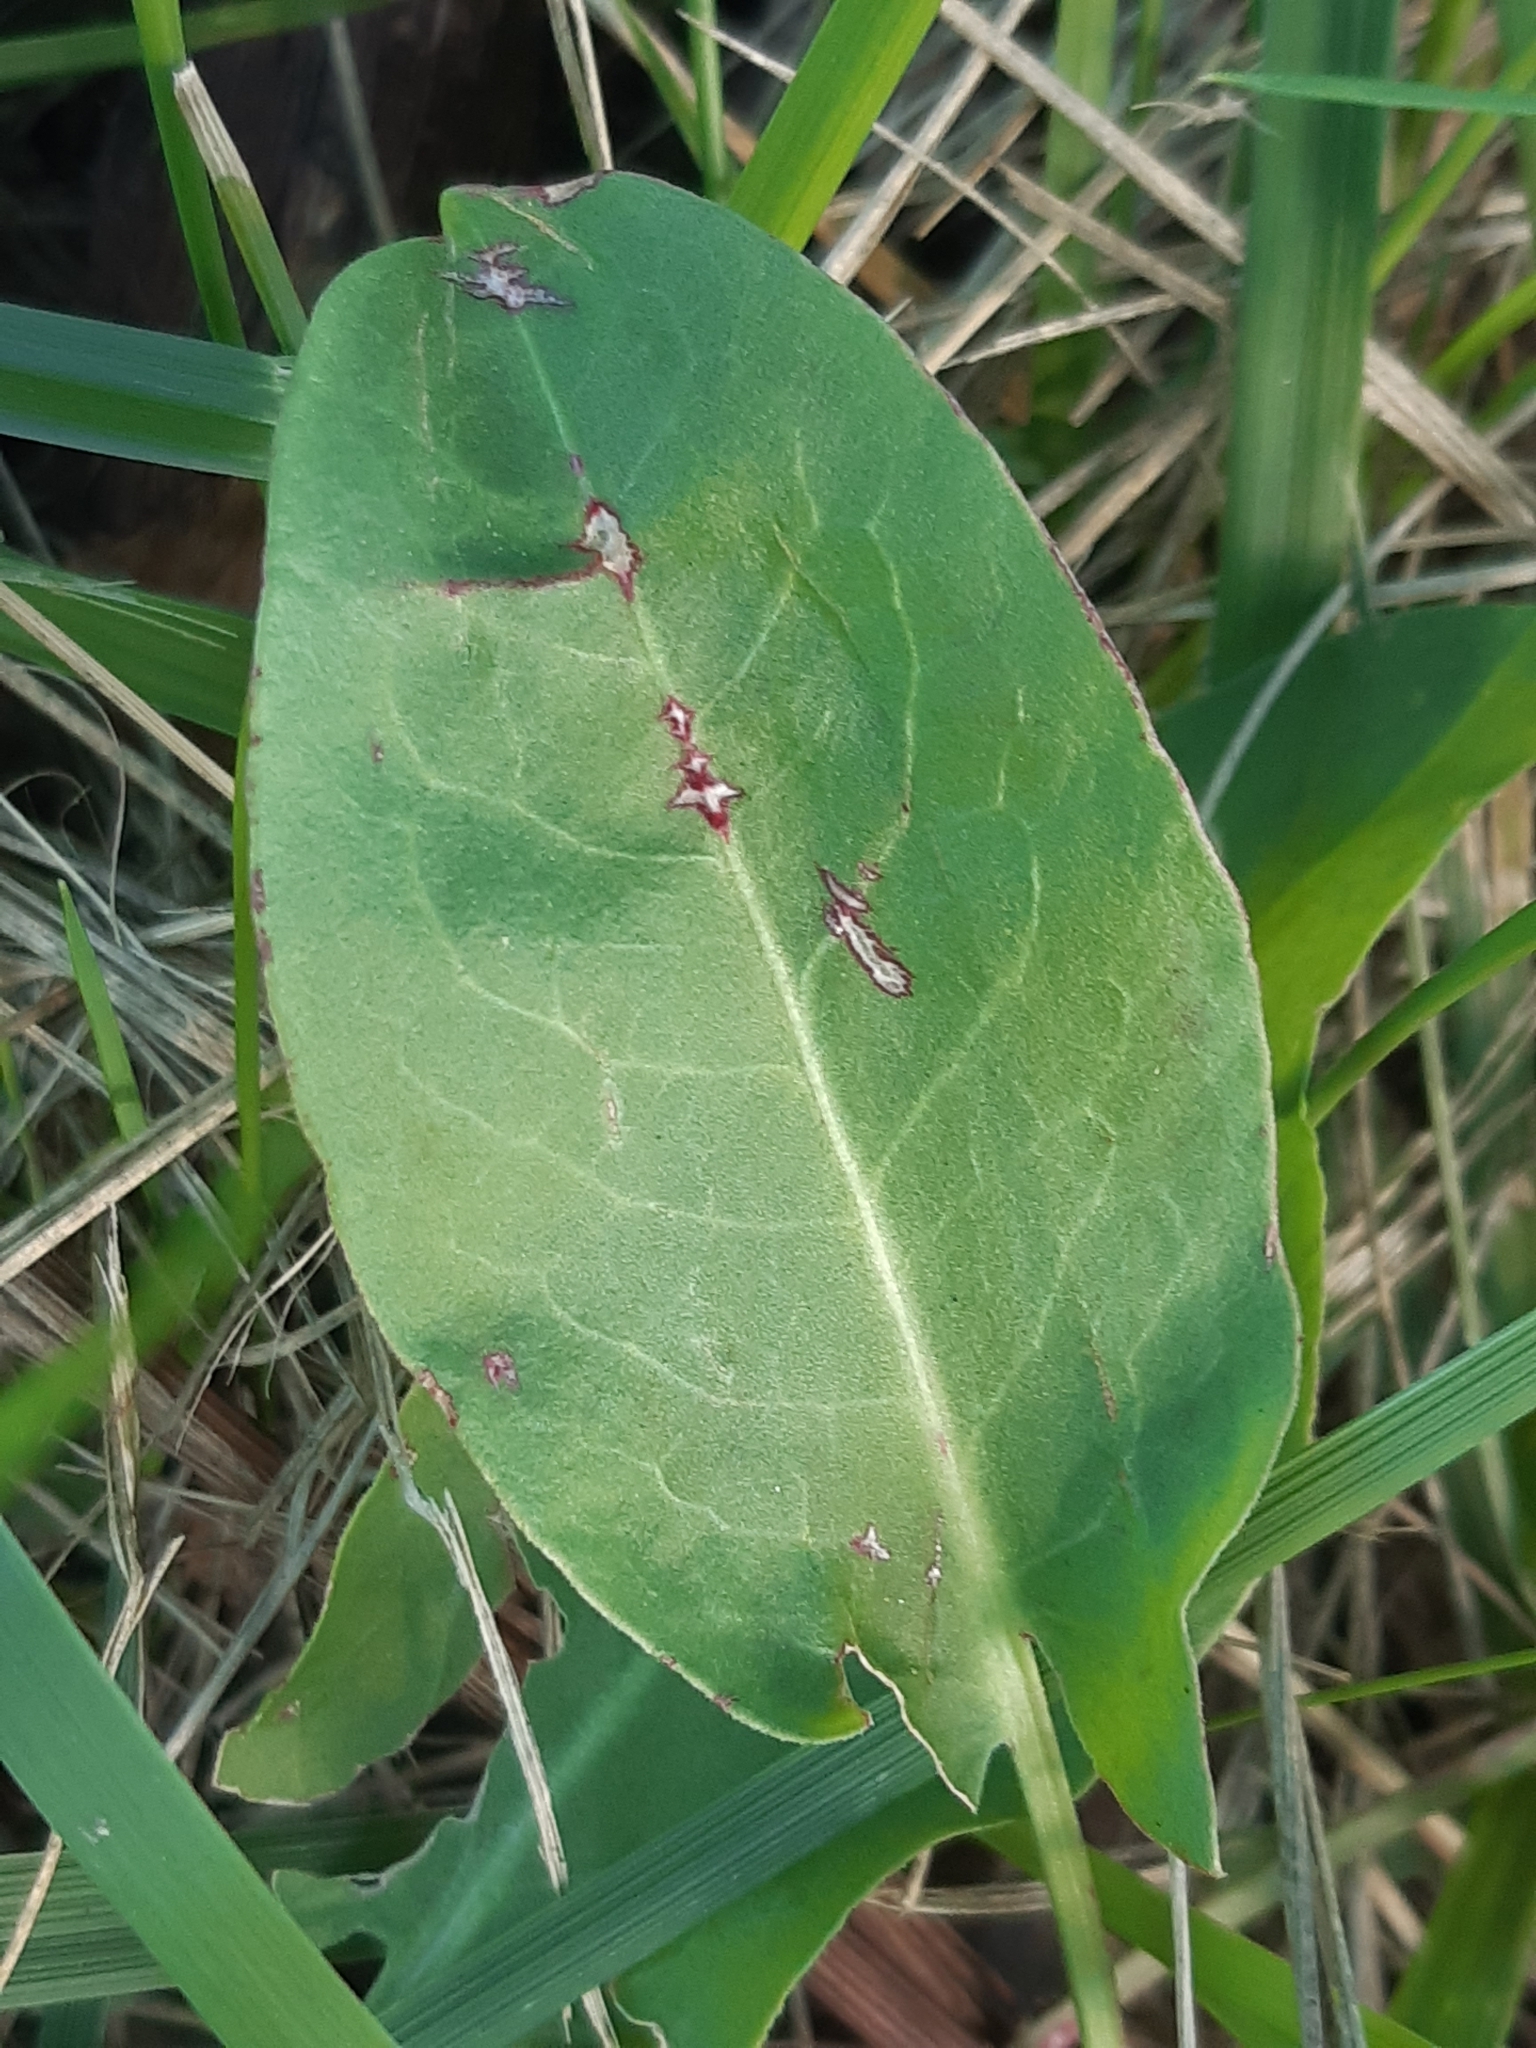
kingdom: Plantae
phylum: Tracheophyta
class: Magnoliopsida
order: Caryophyllales
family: Polygonaceae
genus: Rumex
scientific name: Rumex acetosa
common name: Garden sorrel
